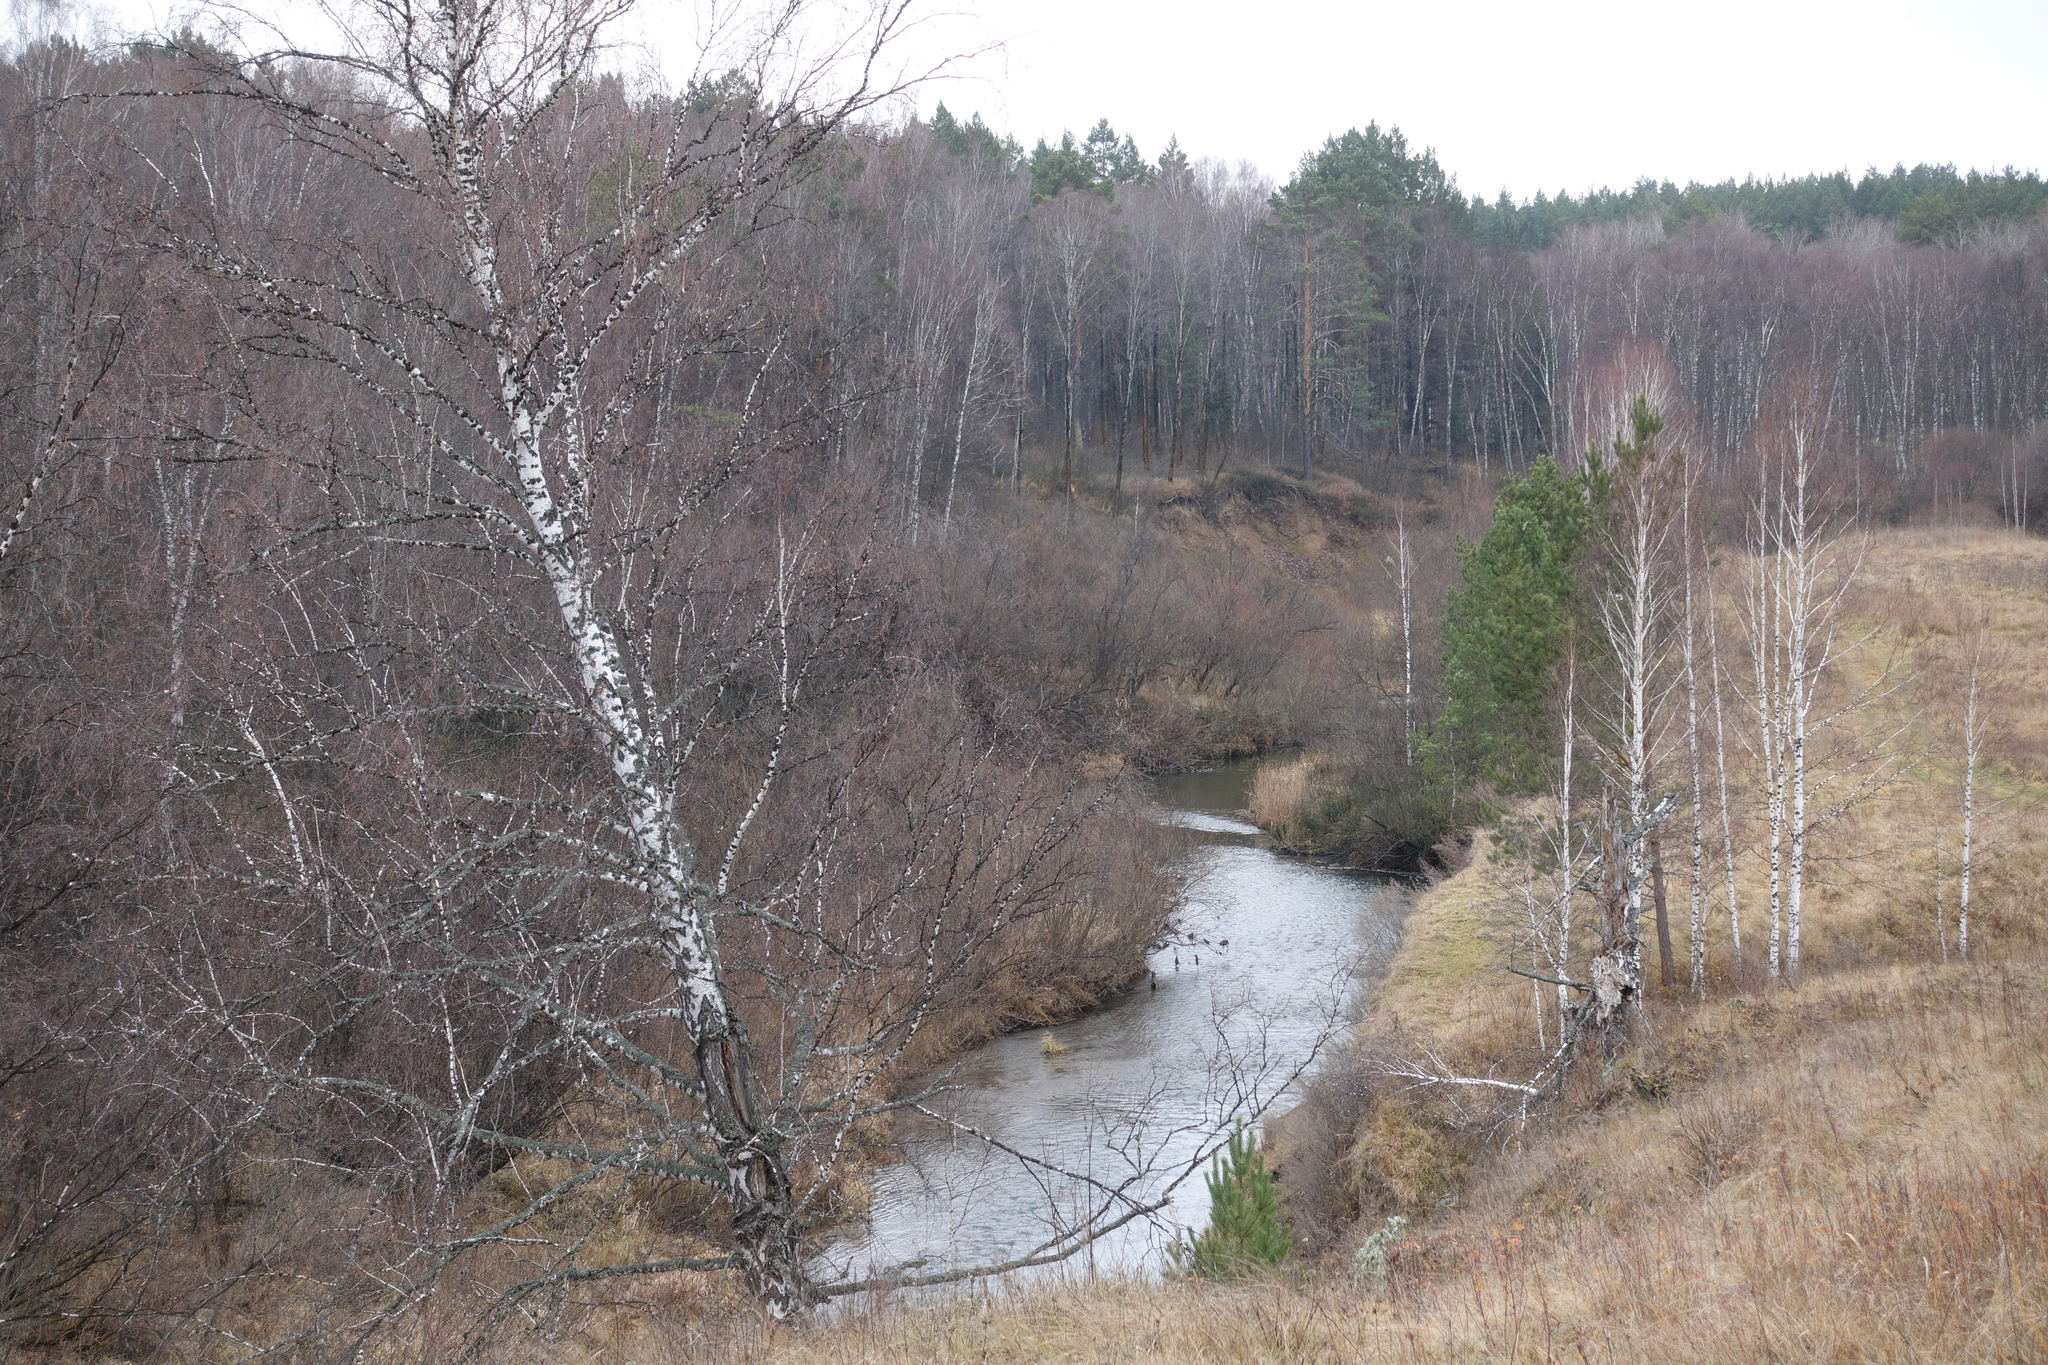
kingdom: Plantae
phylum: Tracheophyta
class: Magnoliopsida
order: Fagales
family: Betulaceae
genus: Betula
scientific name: Betula pendula
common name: Silver birch
